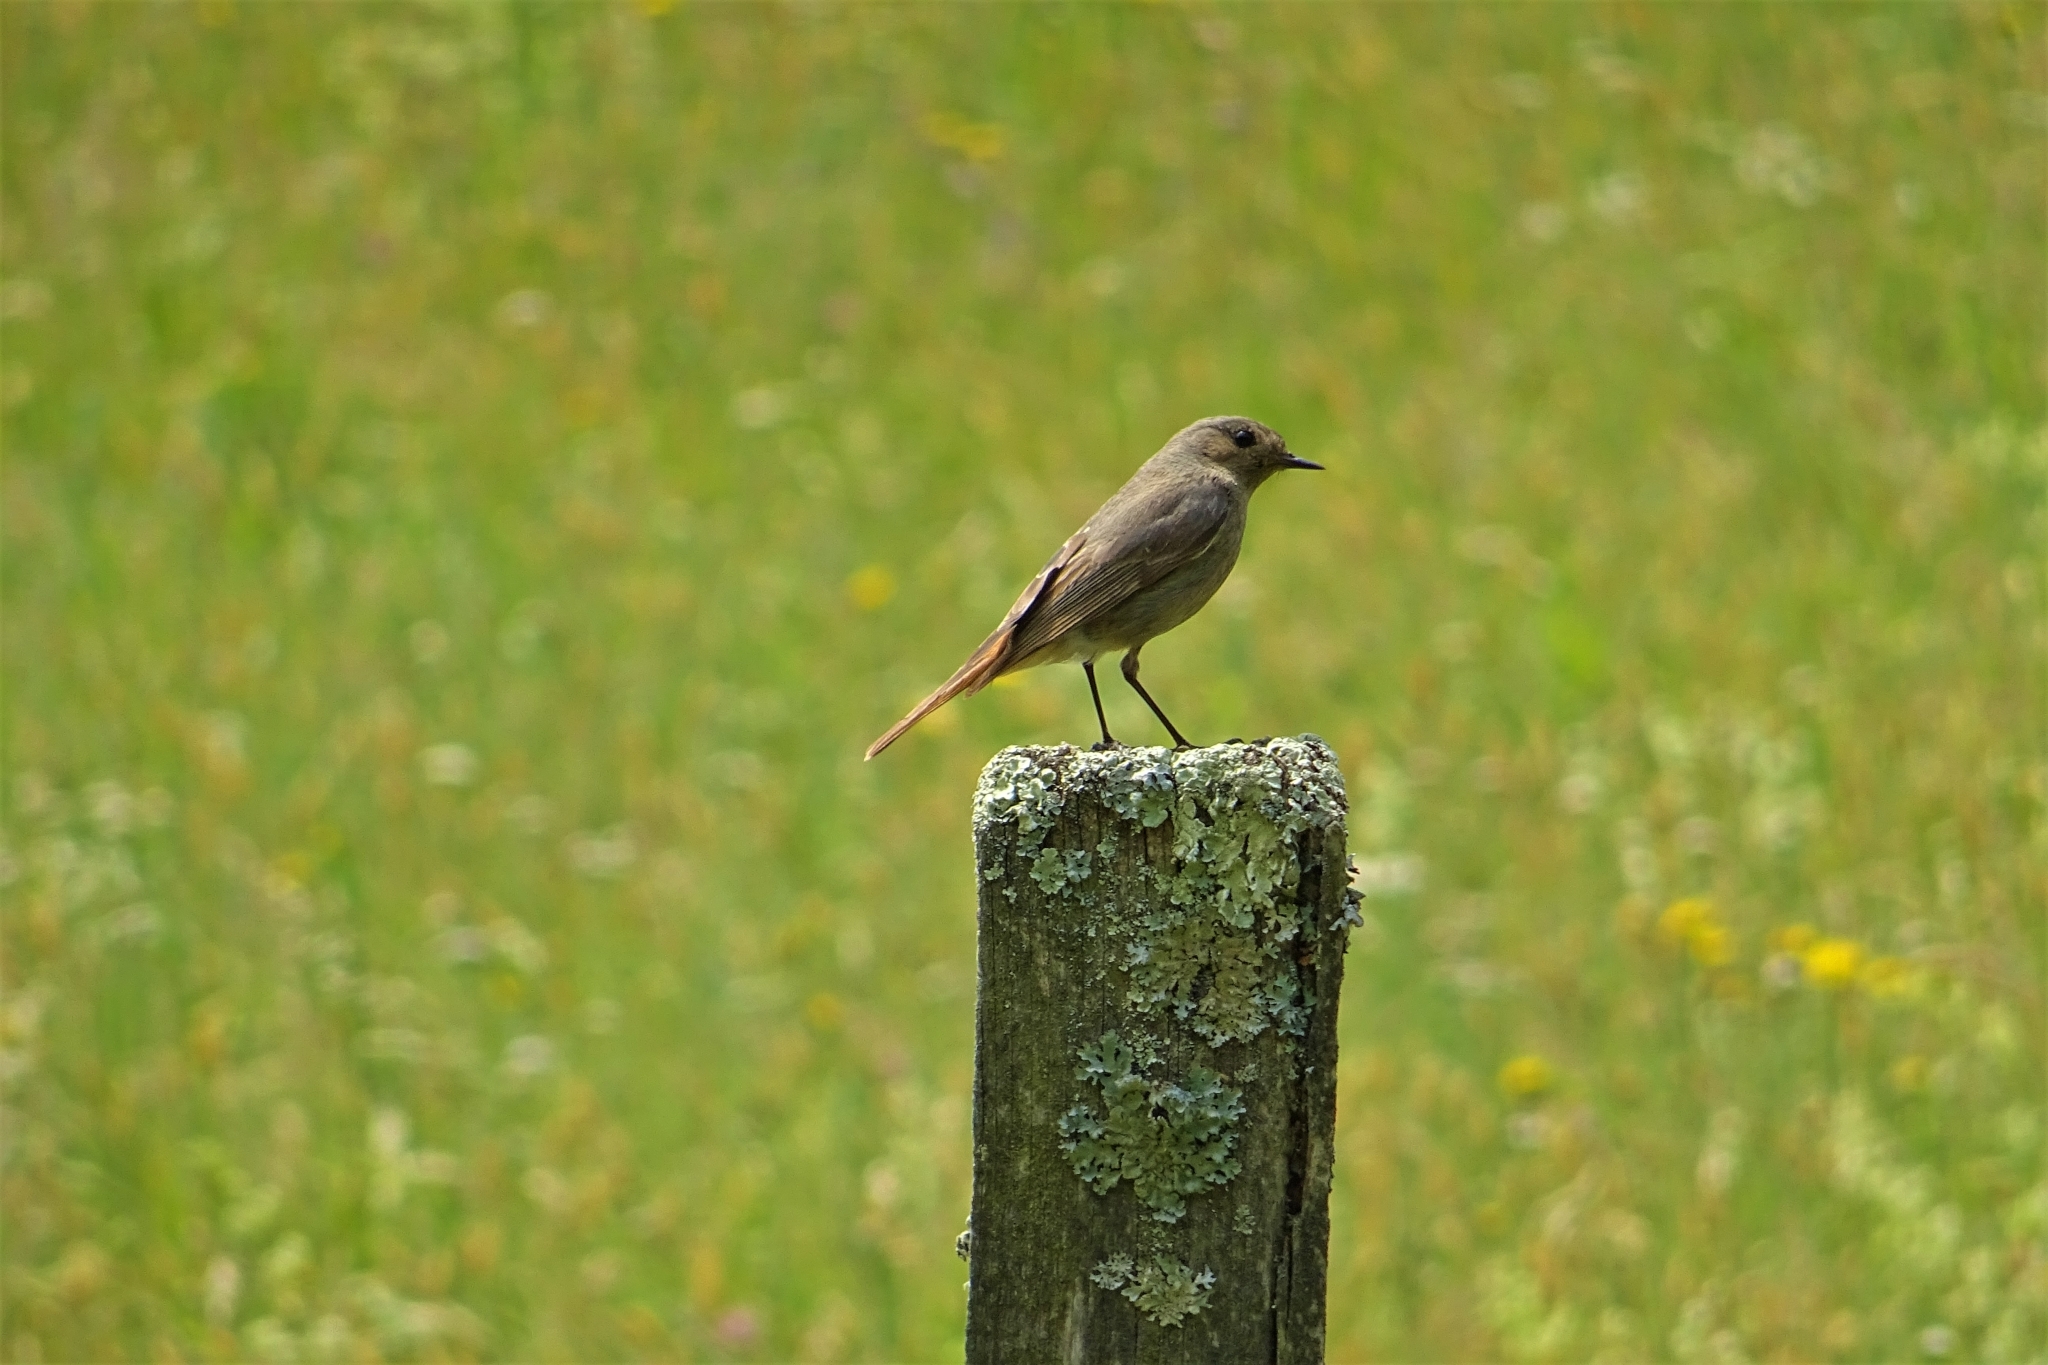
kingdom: Animalia
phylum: Chordata
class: Aves
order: Passeriformes
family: Muscicapidae
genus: Phoenicurus
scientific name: Phoenicurus ochruros
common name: Black redstart
